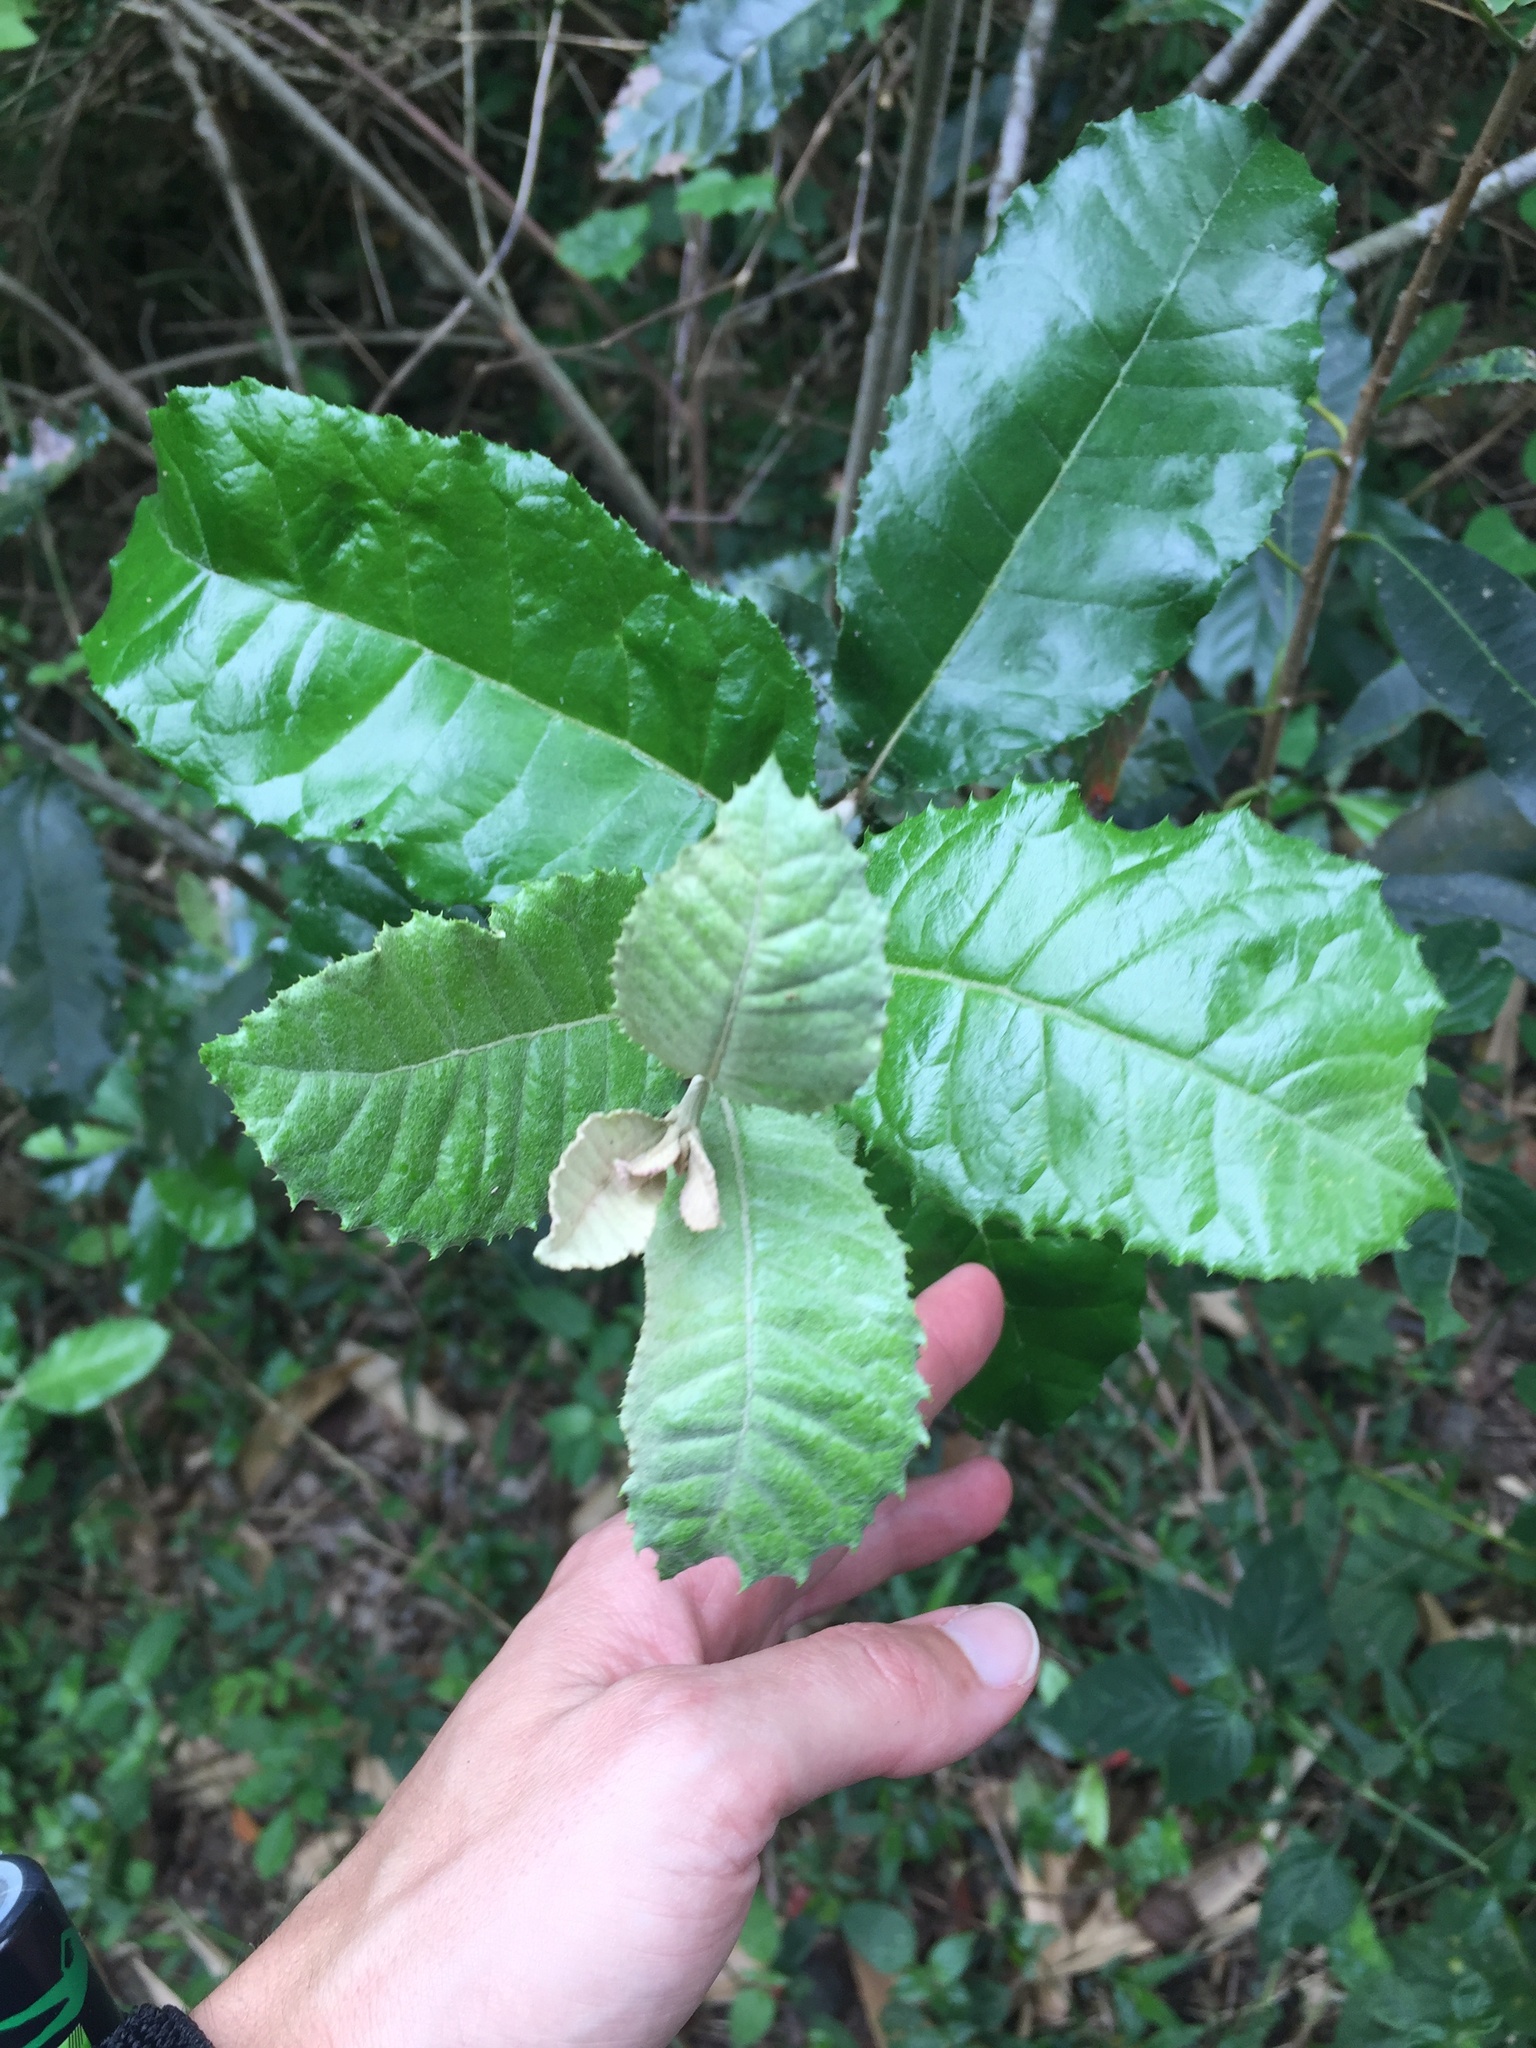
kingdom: Plantae
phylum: Tracheophyta
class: Magnoliopsida
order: Asterales
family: Asteraceae
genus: Brachylaena
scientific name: Brachylaena discolor
